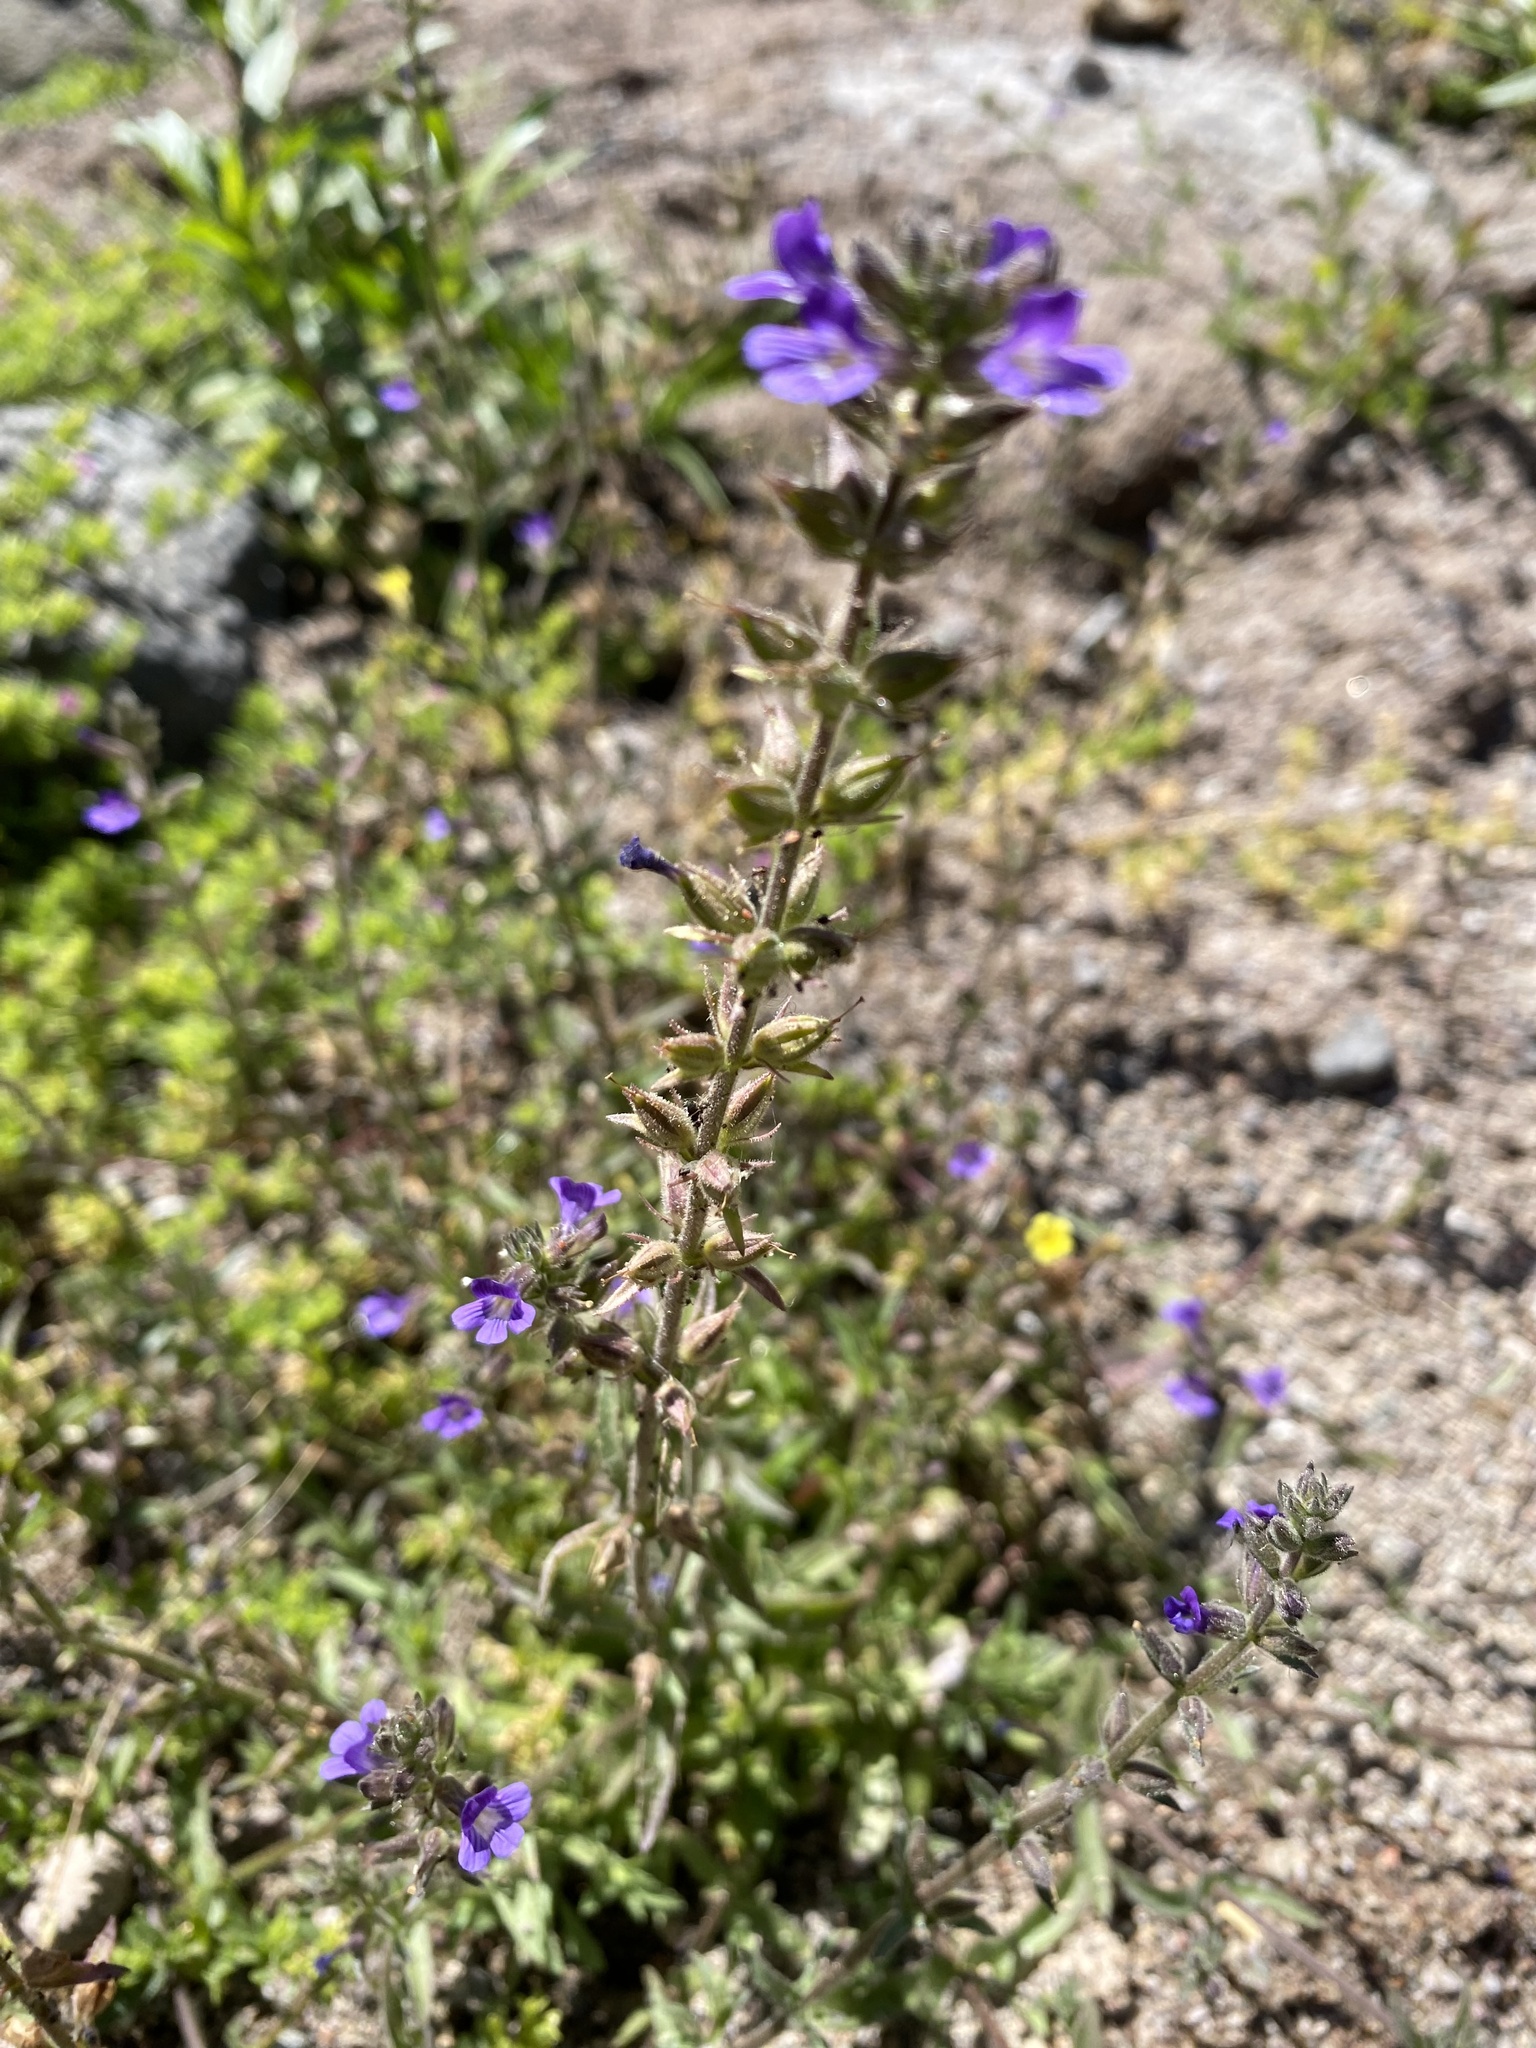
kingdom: Plantae
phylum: Tracheophyta
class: Magnoliopsida
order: Lamiales
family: Plantaginaceae
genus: Stemodia
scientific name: Stemodia durantifolia
